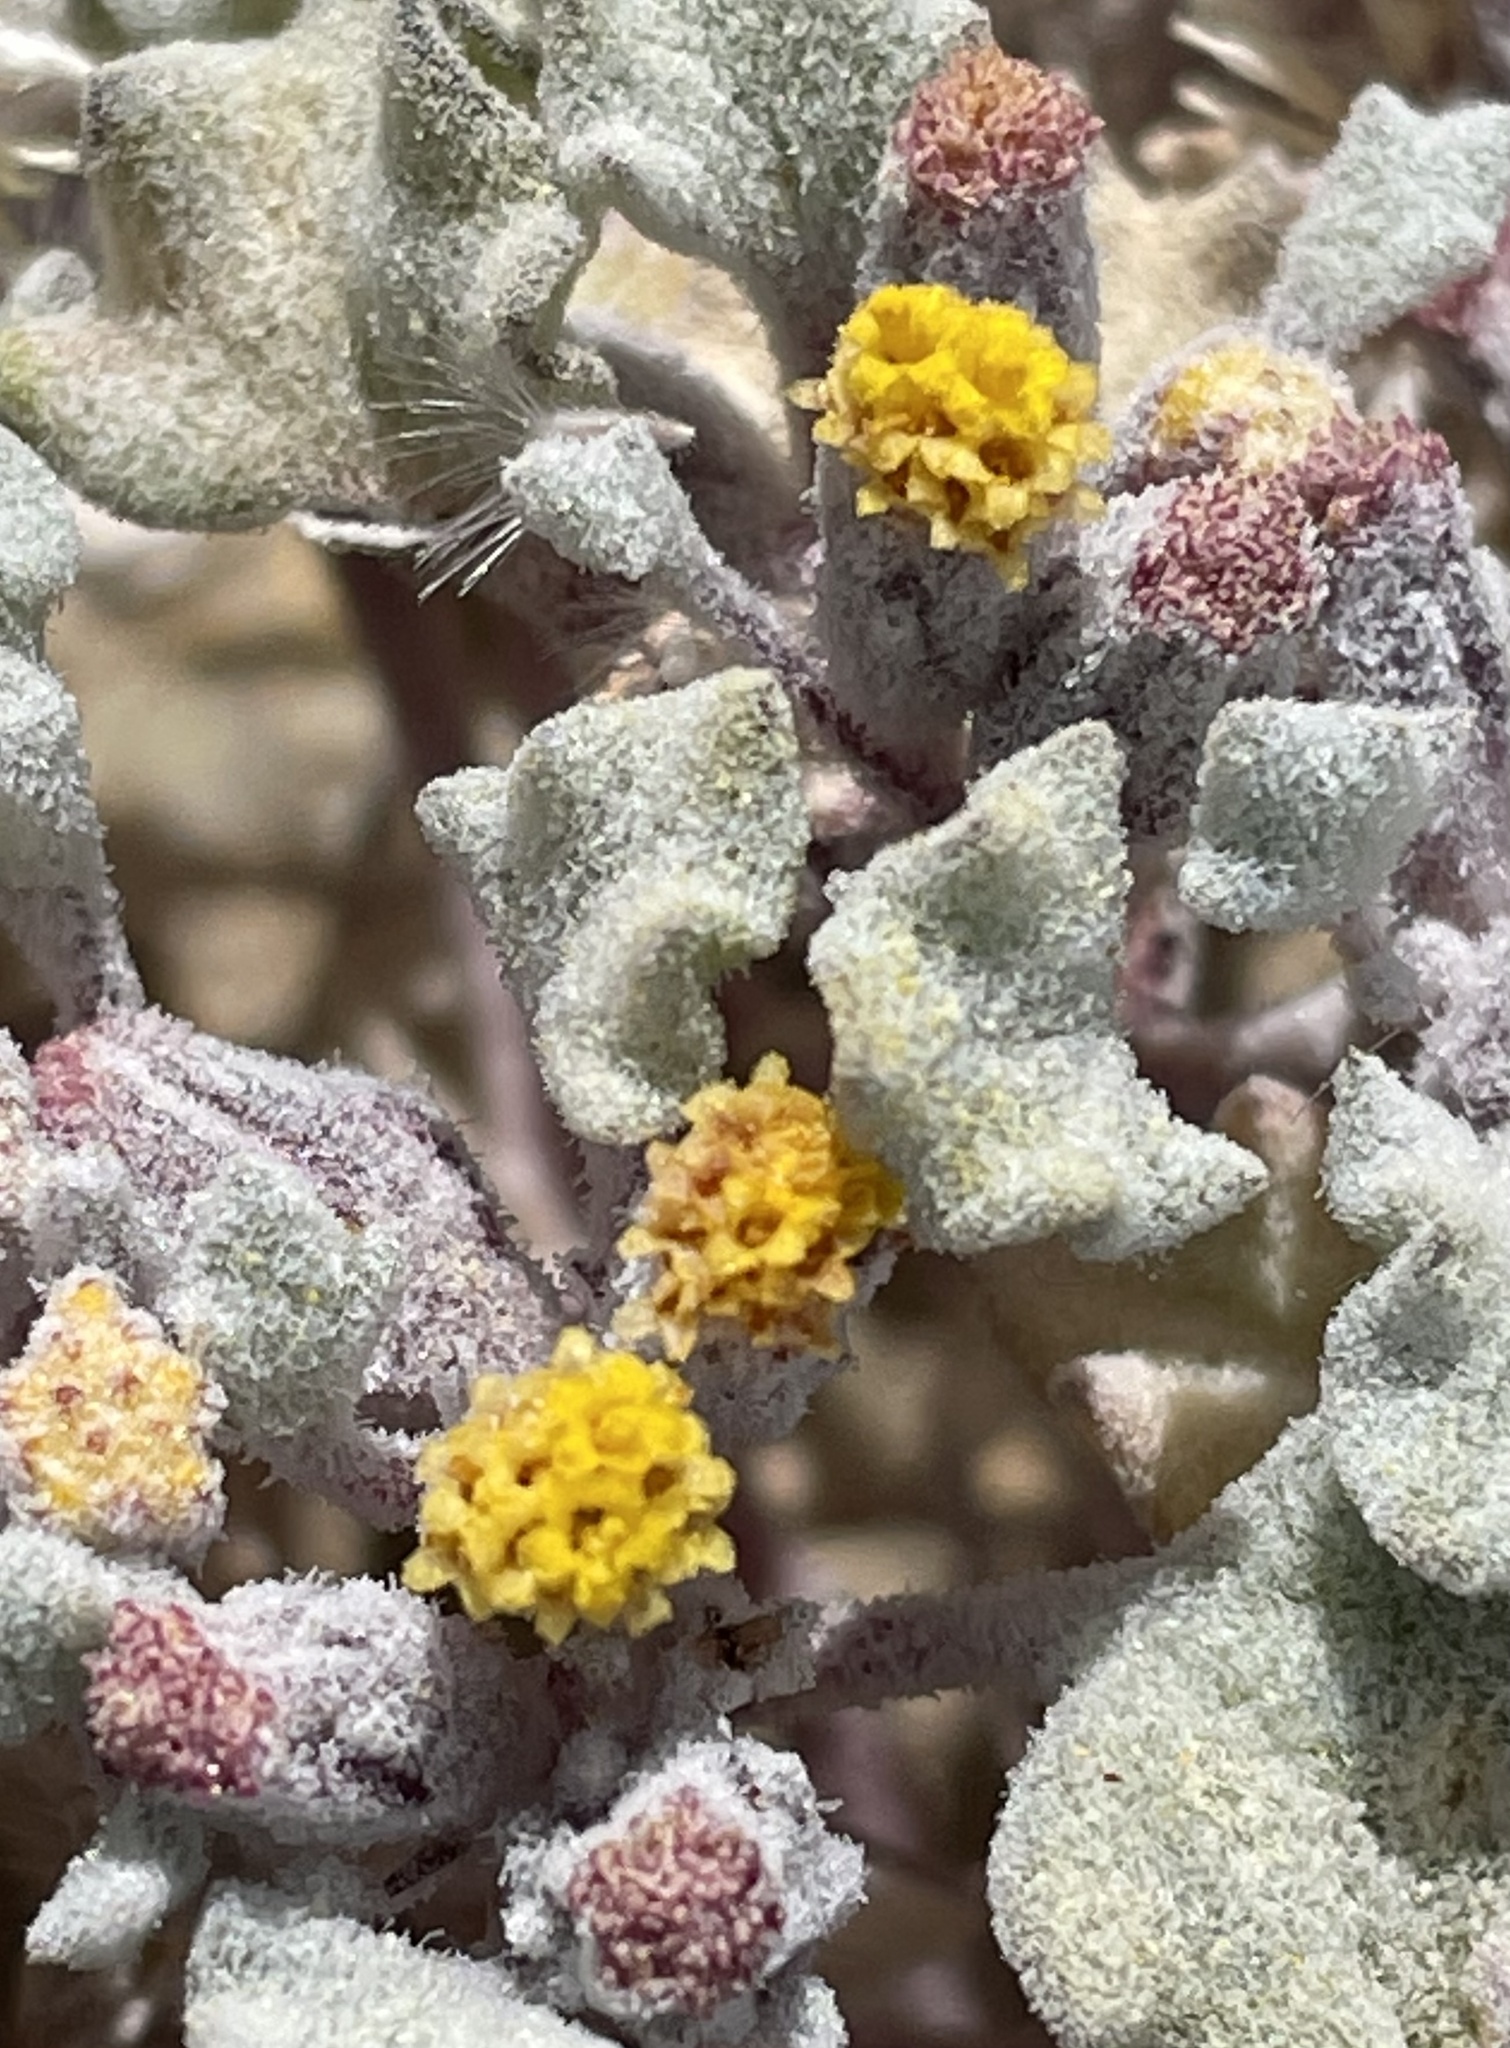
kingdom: Plantae
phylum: Tracheophyta
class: Magnoliopsida
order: Asterales
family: Asteraceae
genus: Psathyrotes
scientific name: Psathyrotes annua
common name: Mealy rosettes
